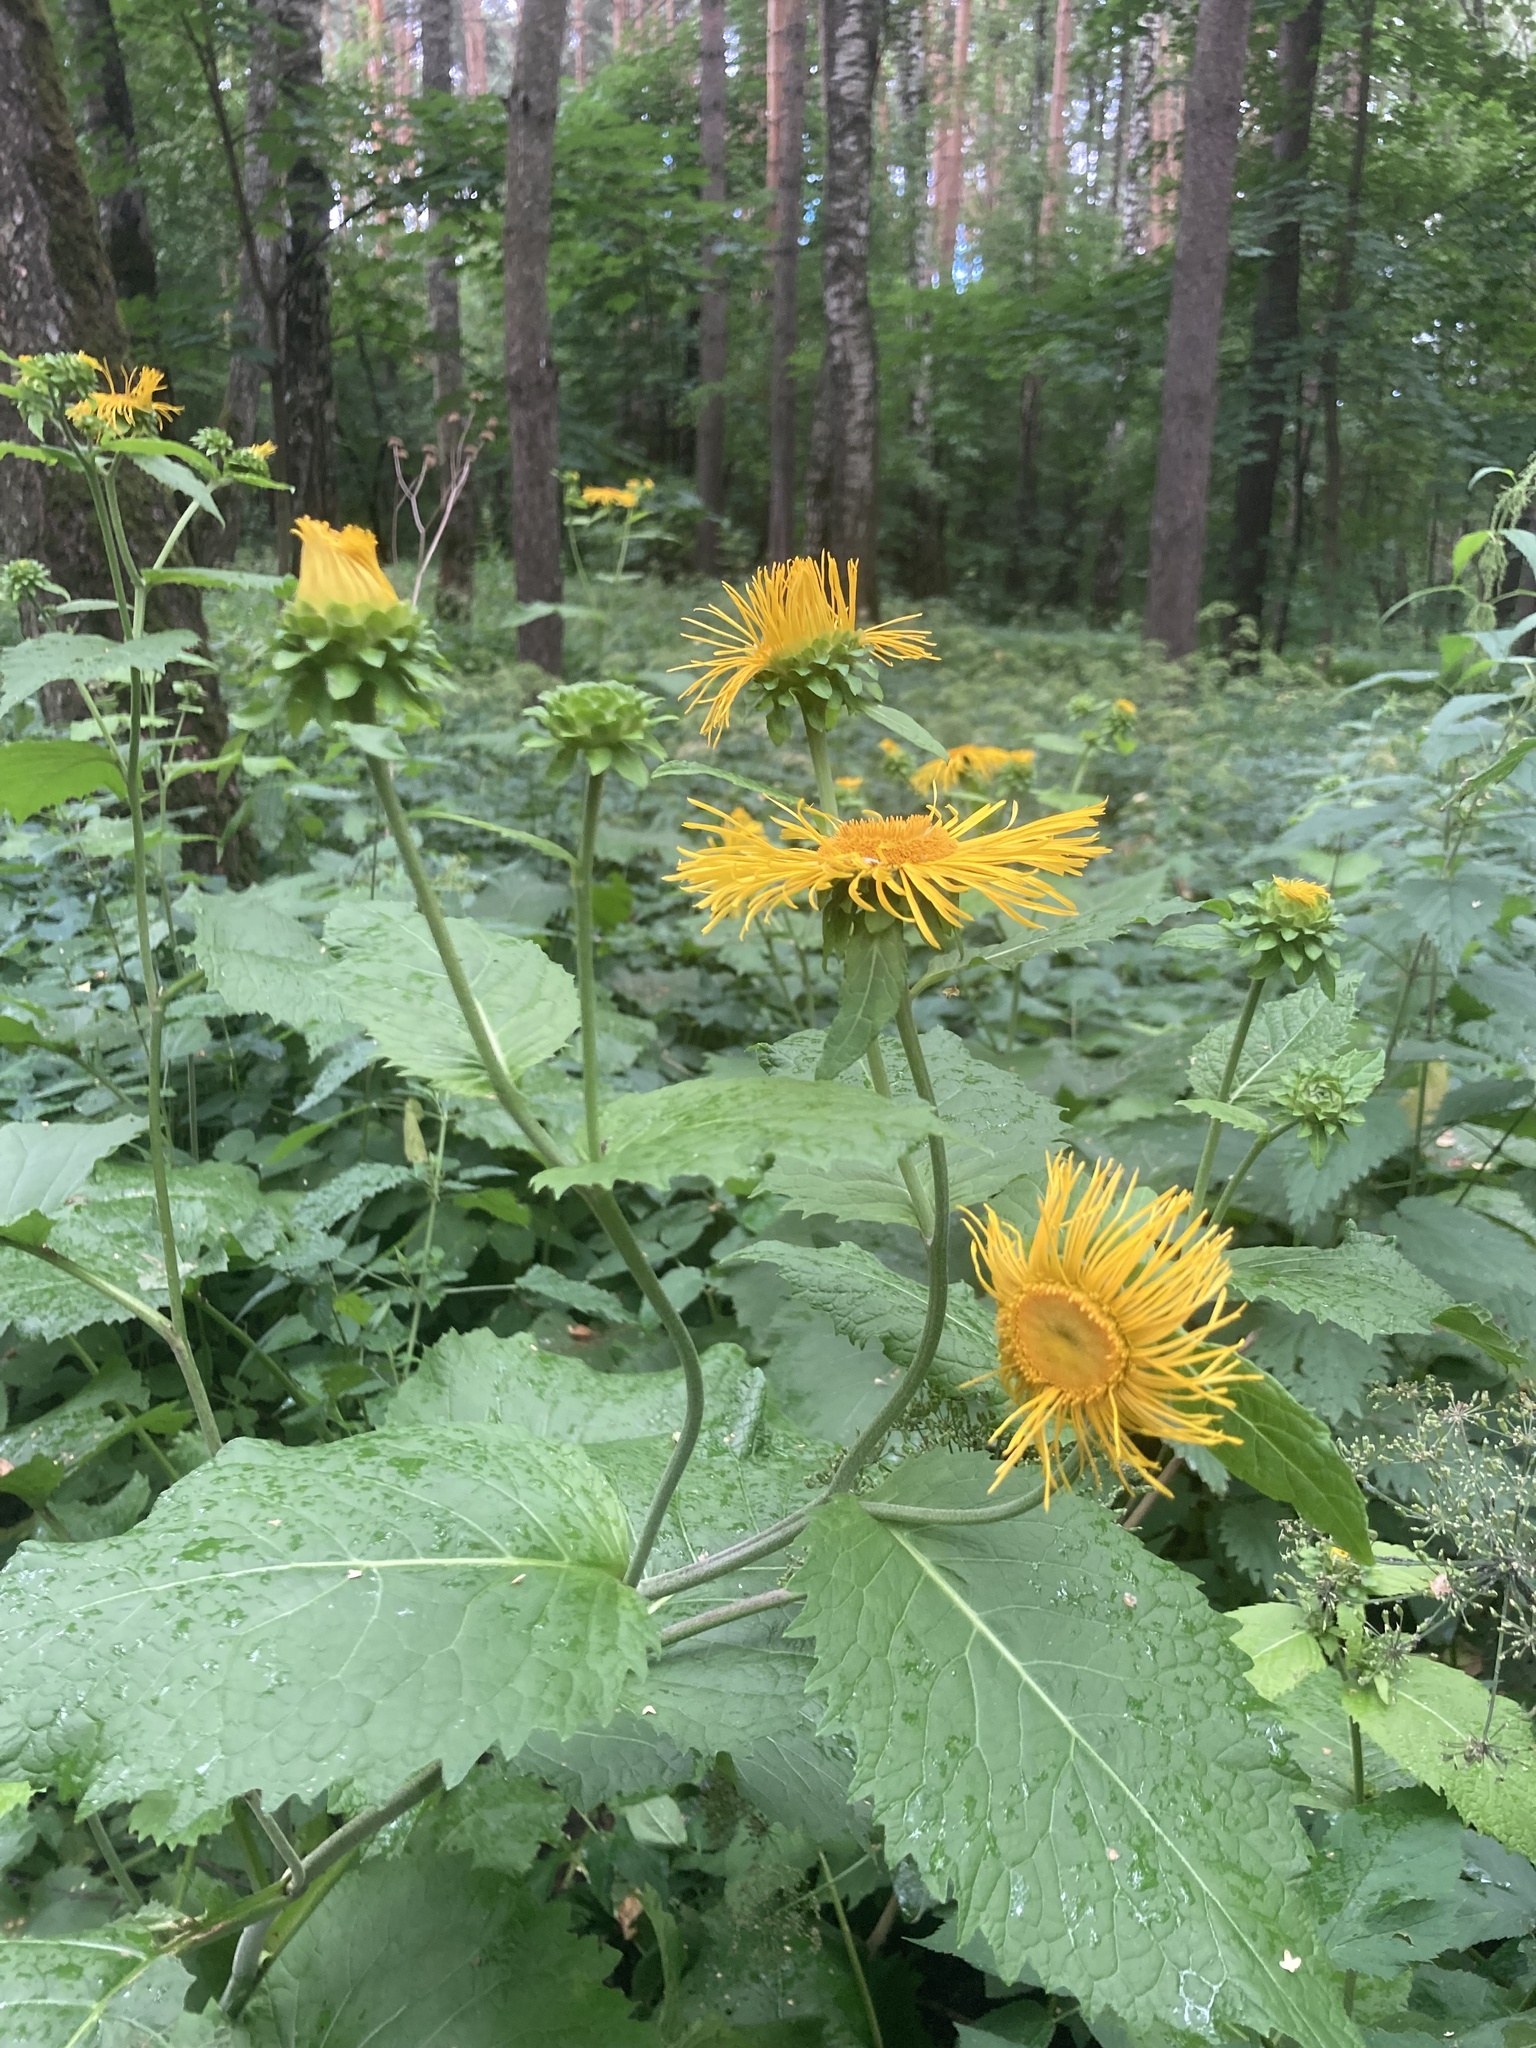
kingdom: Plantae
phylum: Tracheophyta
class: Magnoliopsida
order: Asterales
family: Asteraceae
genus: Telekia
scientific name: Telekia speciosa
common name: Yellow oxeye
